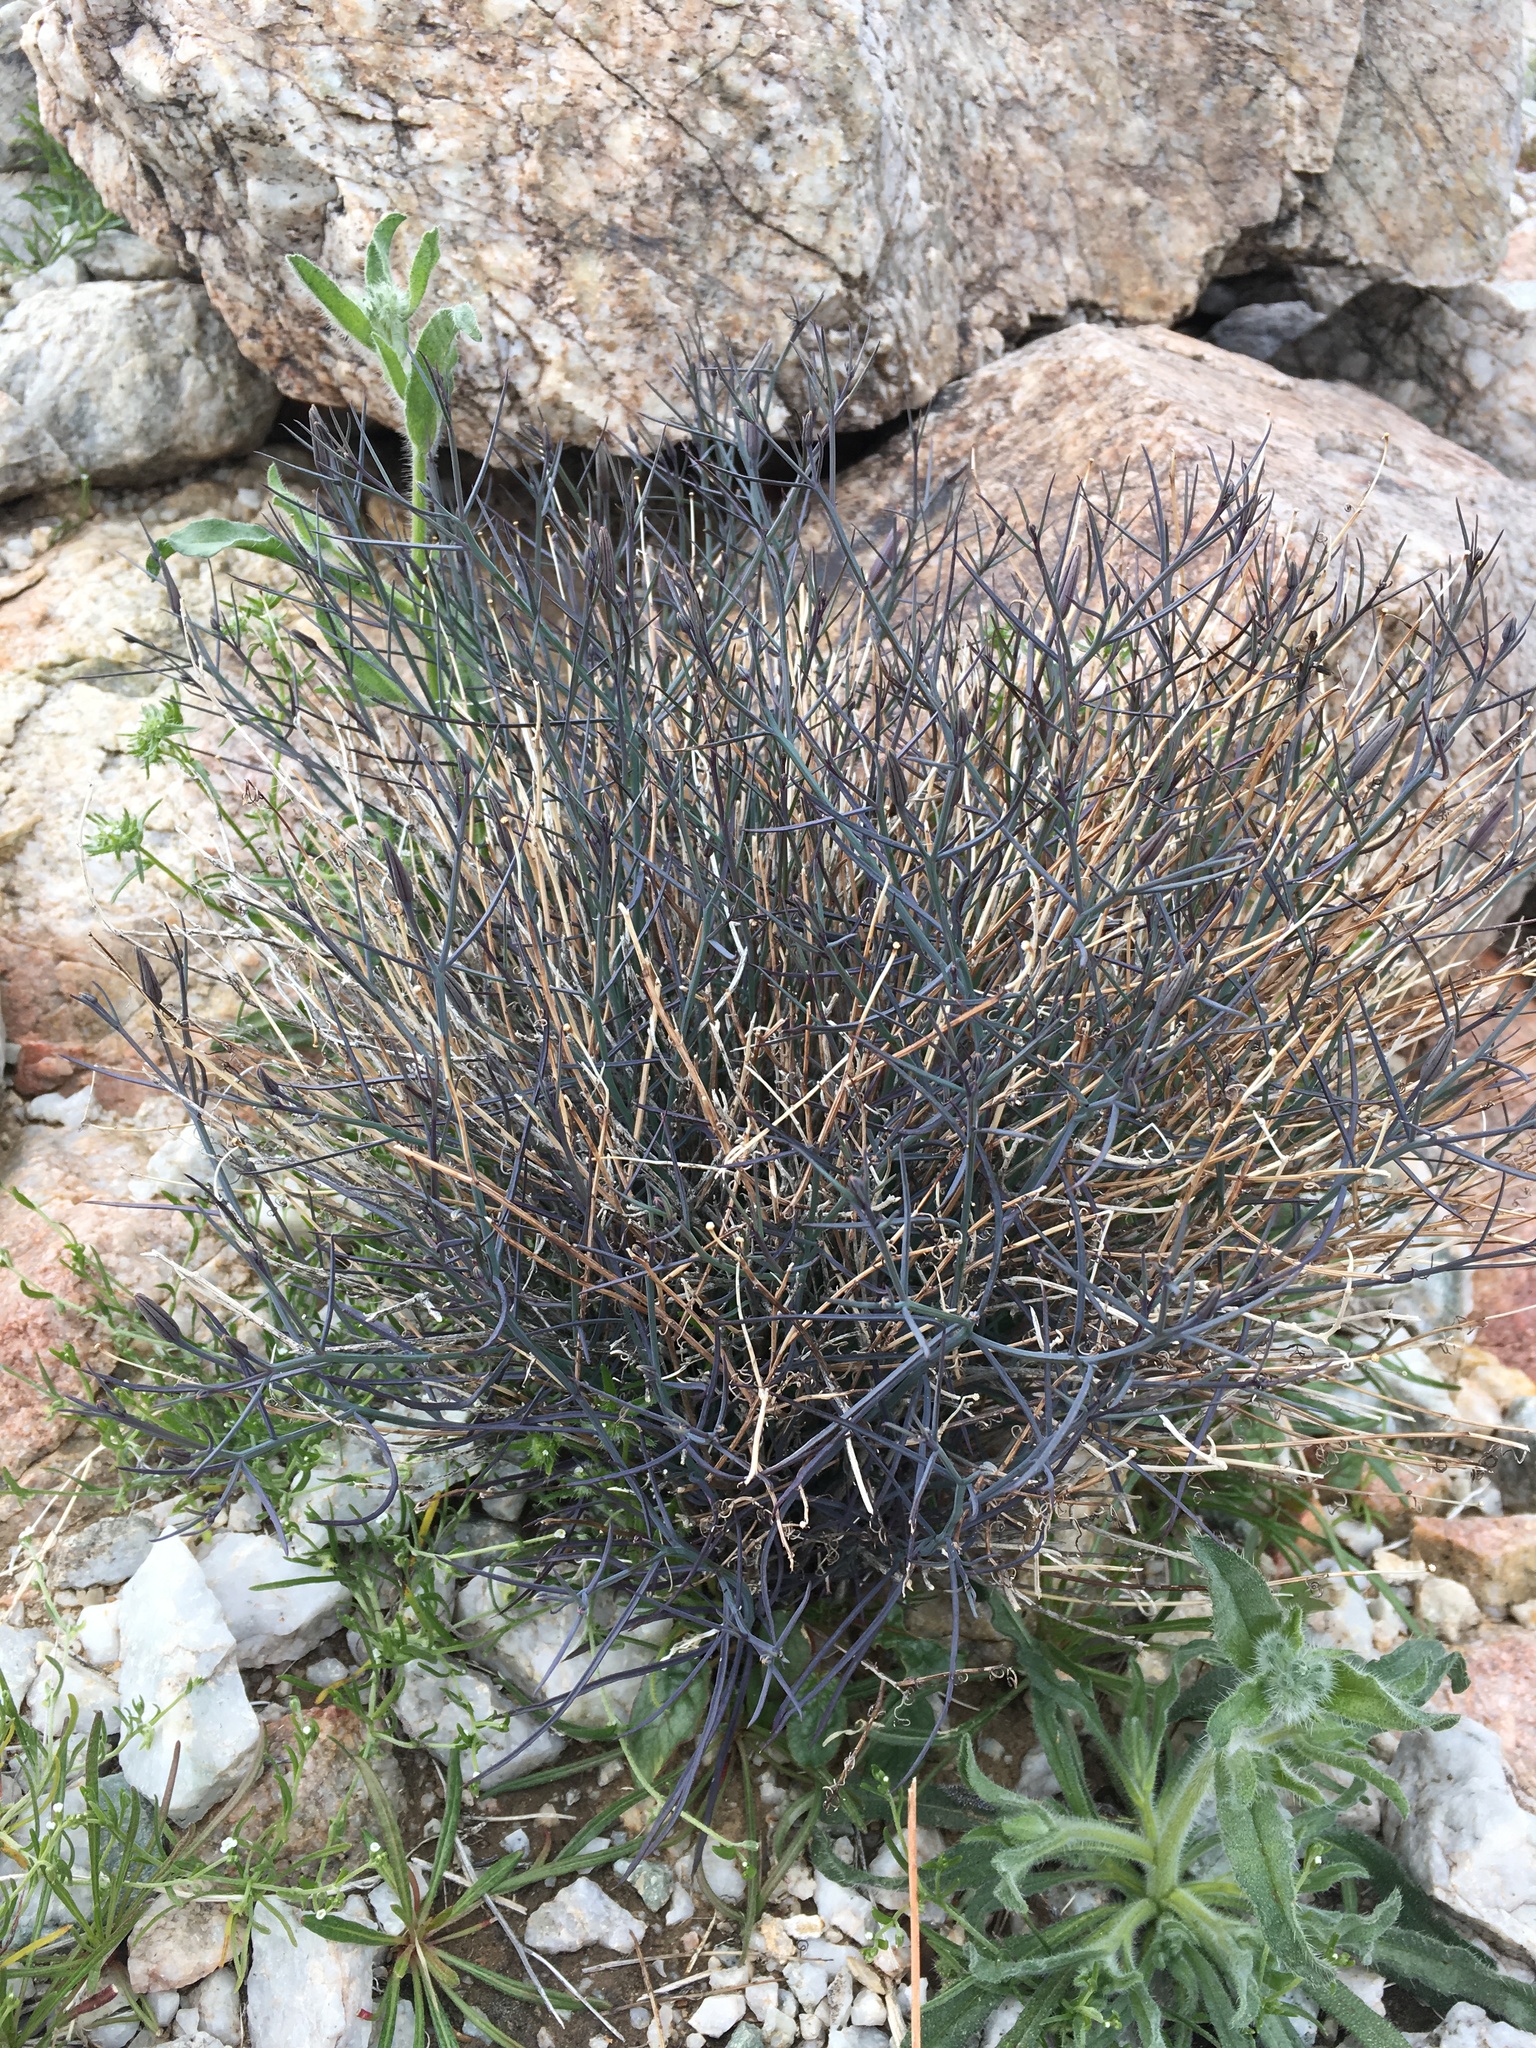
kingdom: Plantae
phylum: Tracheophyta
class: Magnoliopsida
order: Asterales
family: Asteraceae
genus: Porophyllum
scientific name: Porophyllum gracile
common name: Odora
